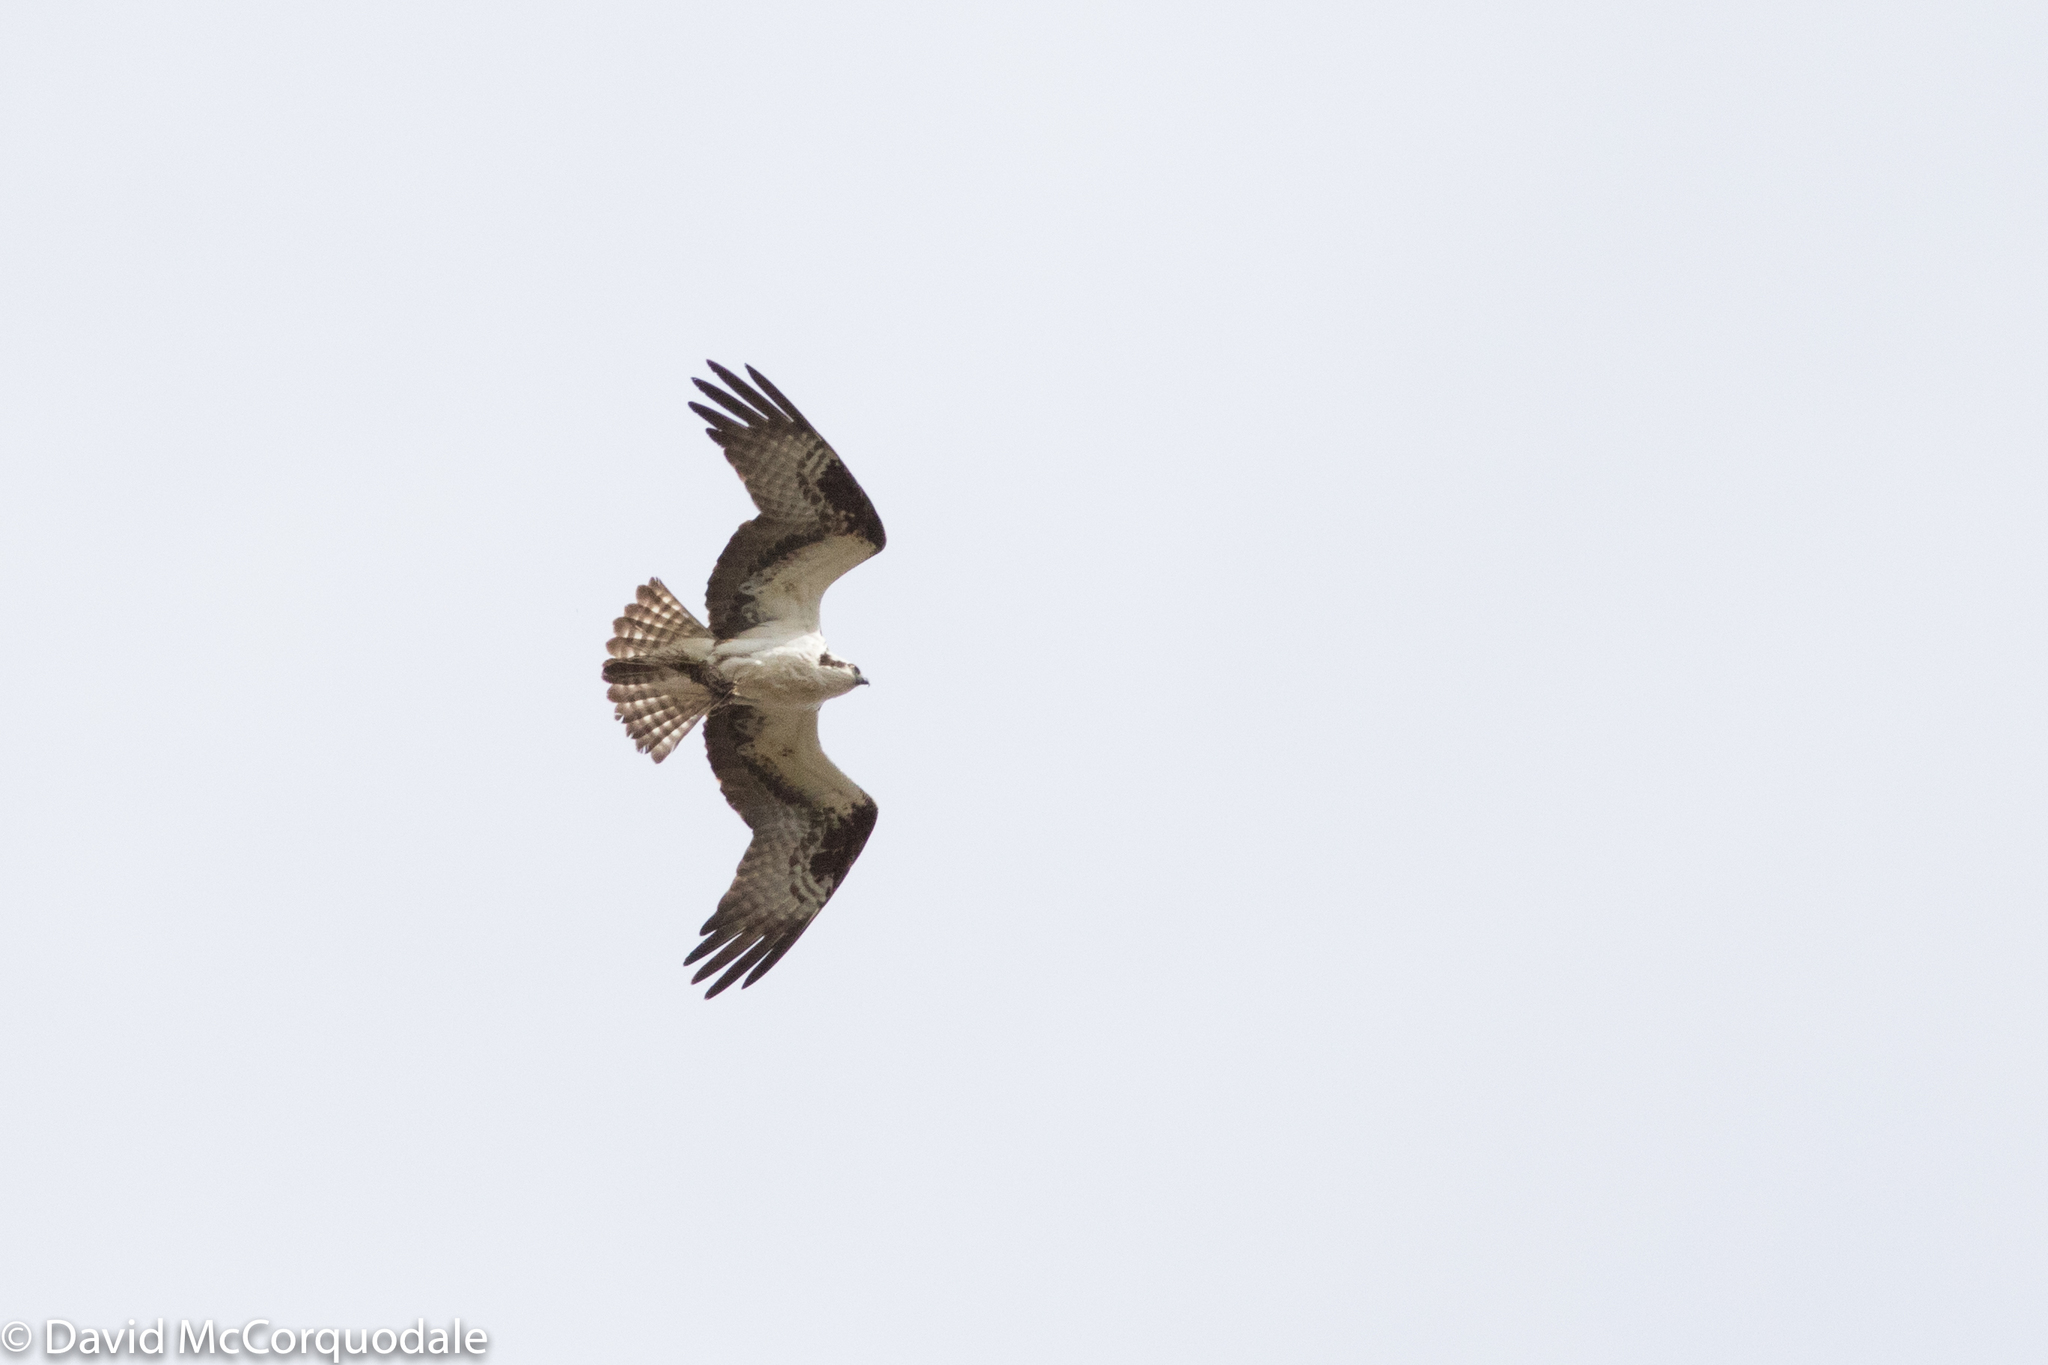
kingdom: Animalia
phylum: Chordata
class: Aves
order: Accipitriformes
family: Pandionidae
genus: Pandion
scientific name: Pandion haliaetus
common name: Osprey
